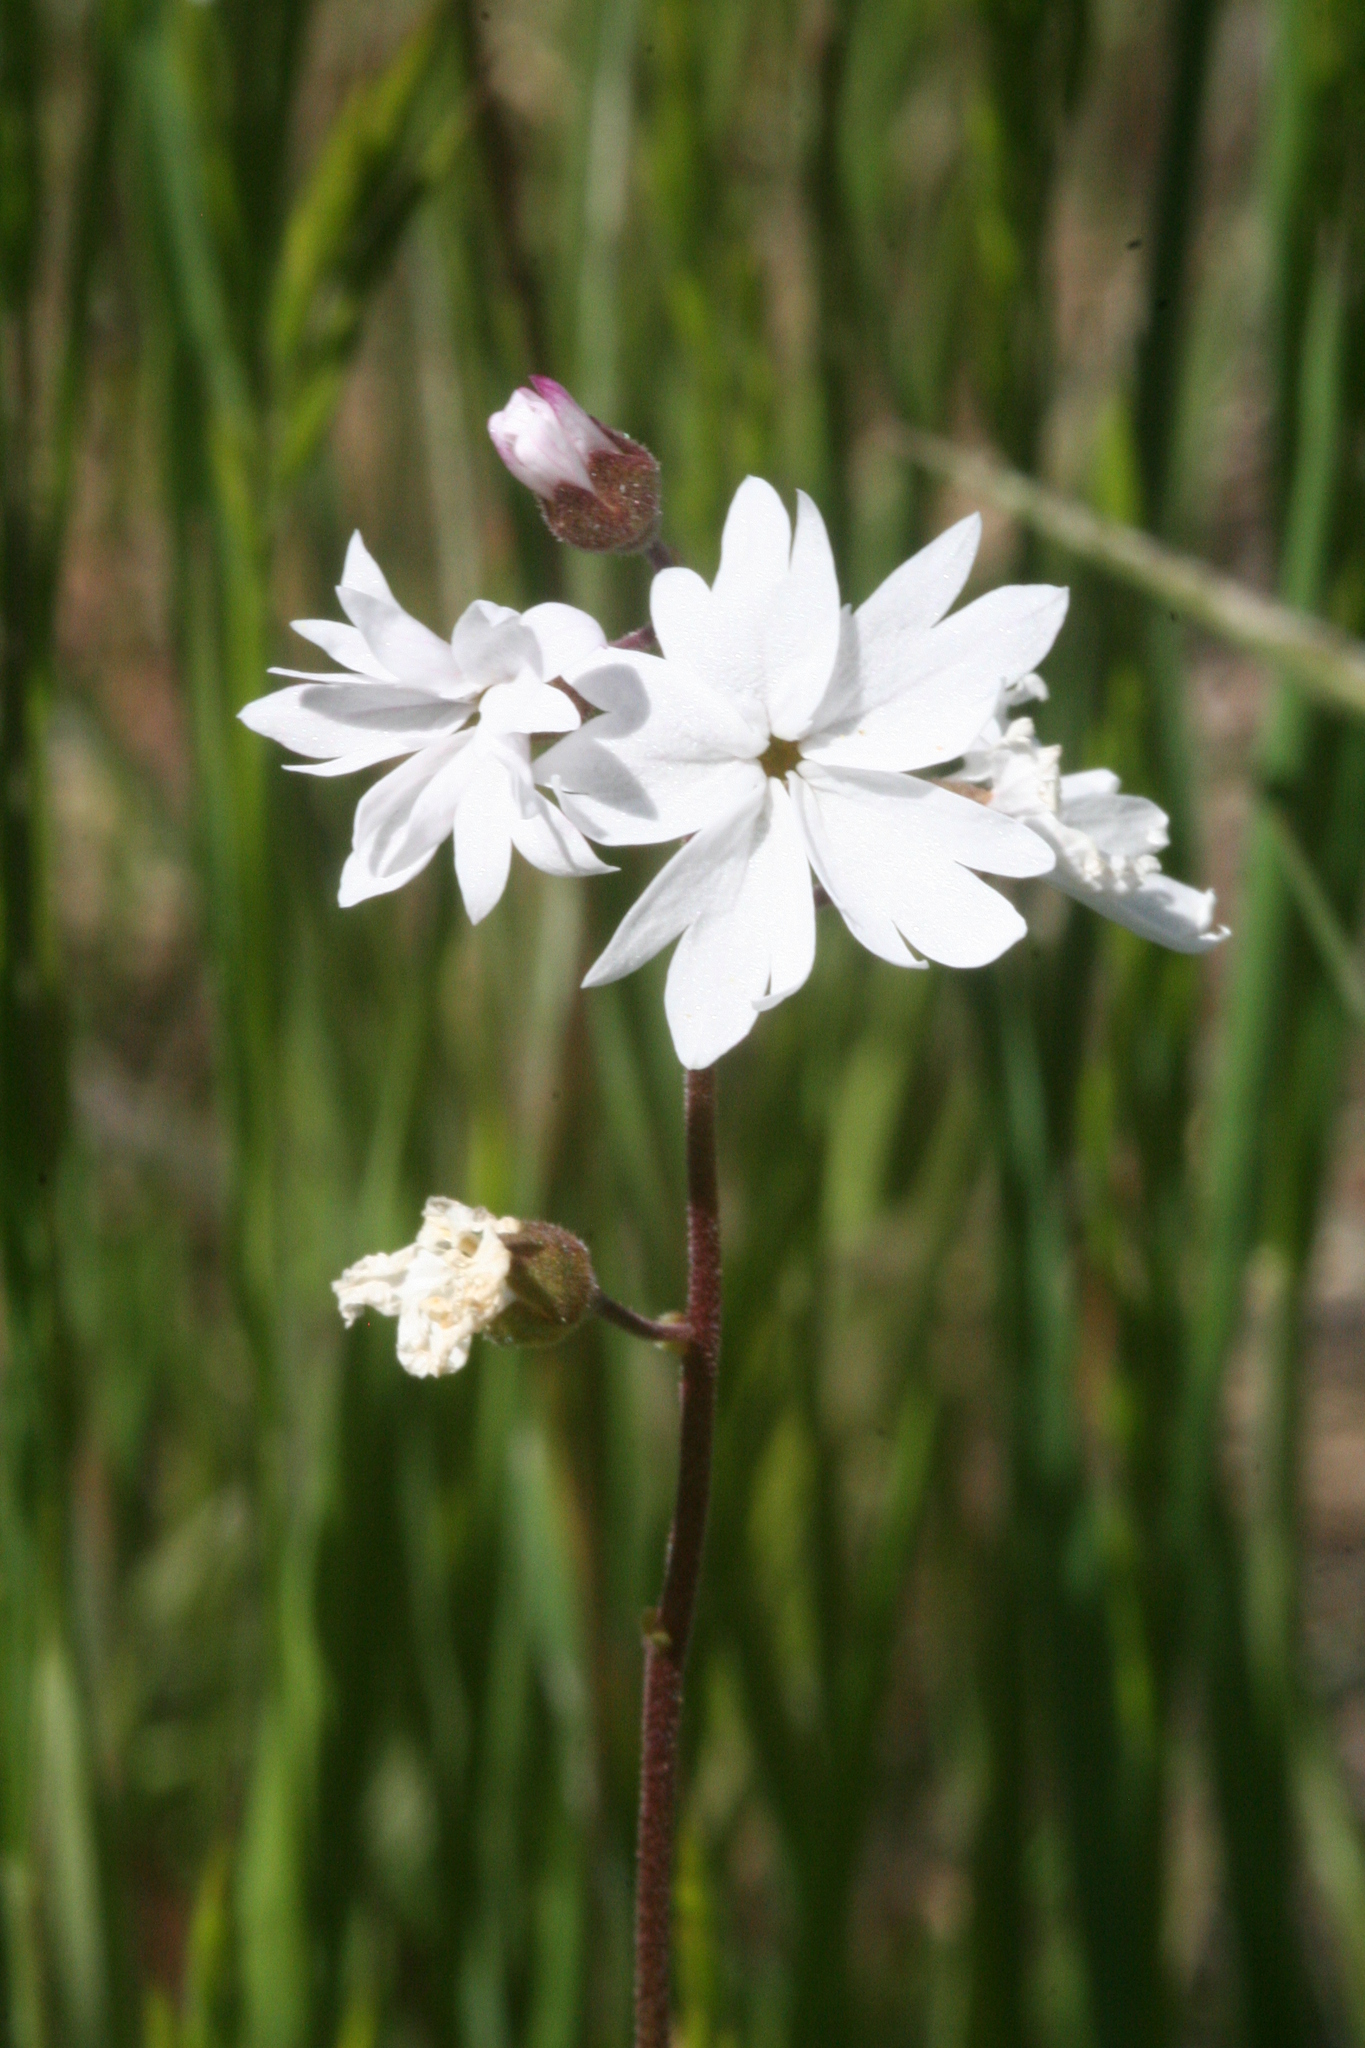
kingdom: Plantae
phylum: Tracheophyta
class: Magnoliopsida
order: Saxifragales
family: Saxifragaceae
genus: Lithophragma
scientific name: Lithophragma heterophyllum
